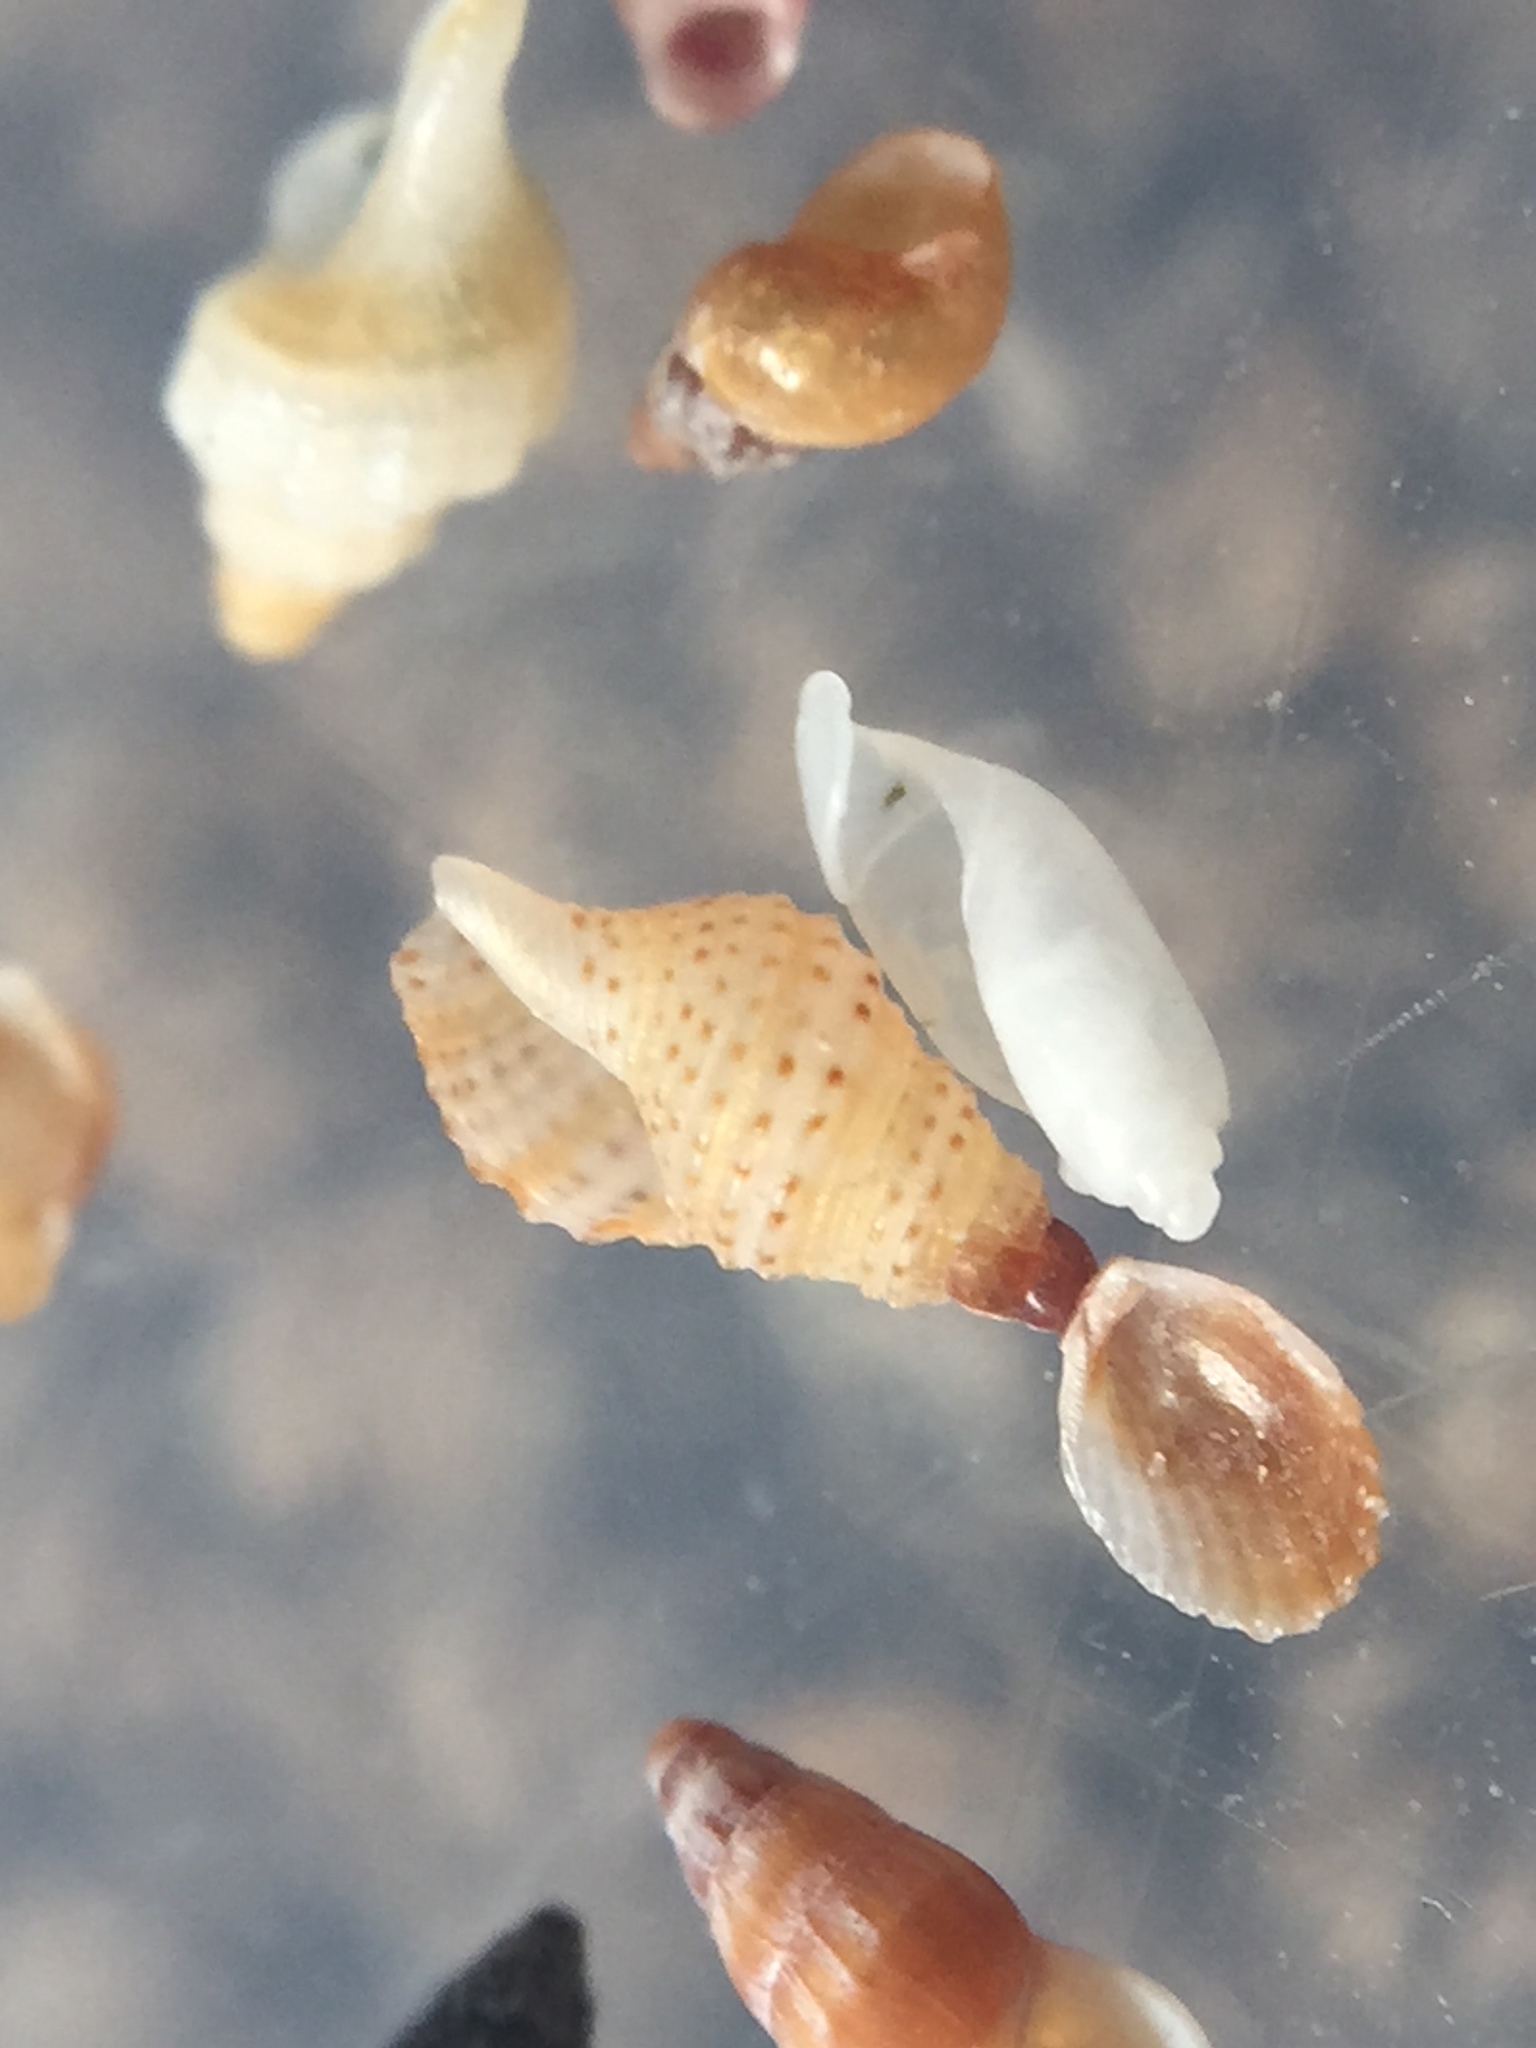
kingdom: Animalia
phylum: Mollusca
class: Gastropoda
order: Neogastropoda
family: Columbellidae
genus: Liratilia
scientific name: Liratilia compta
